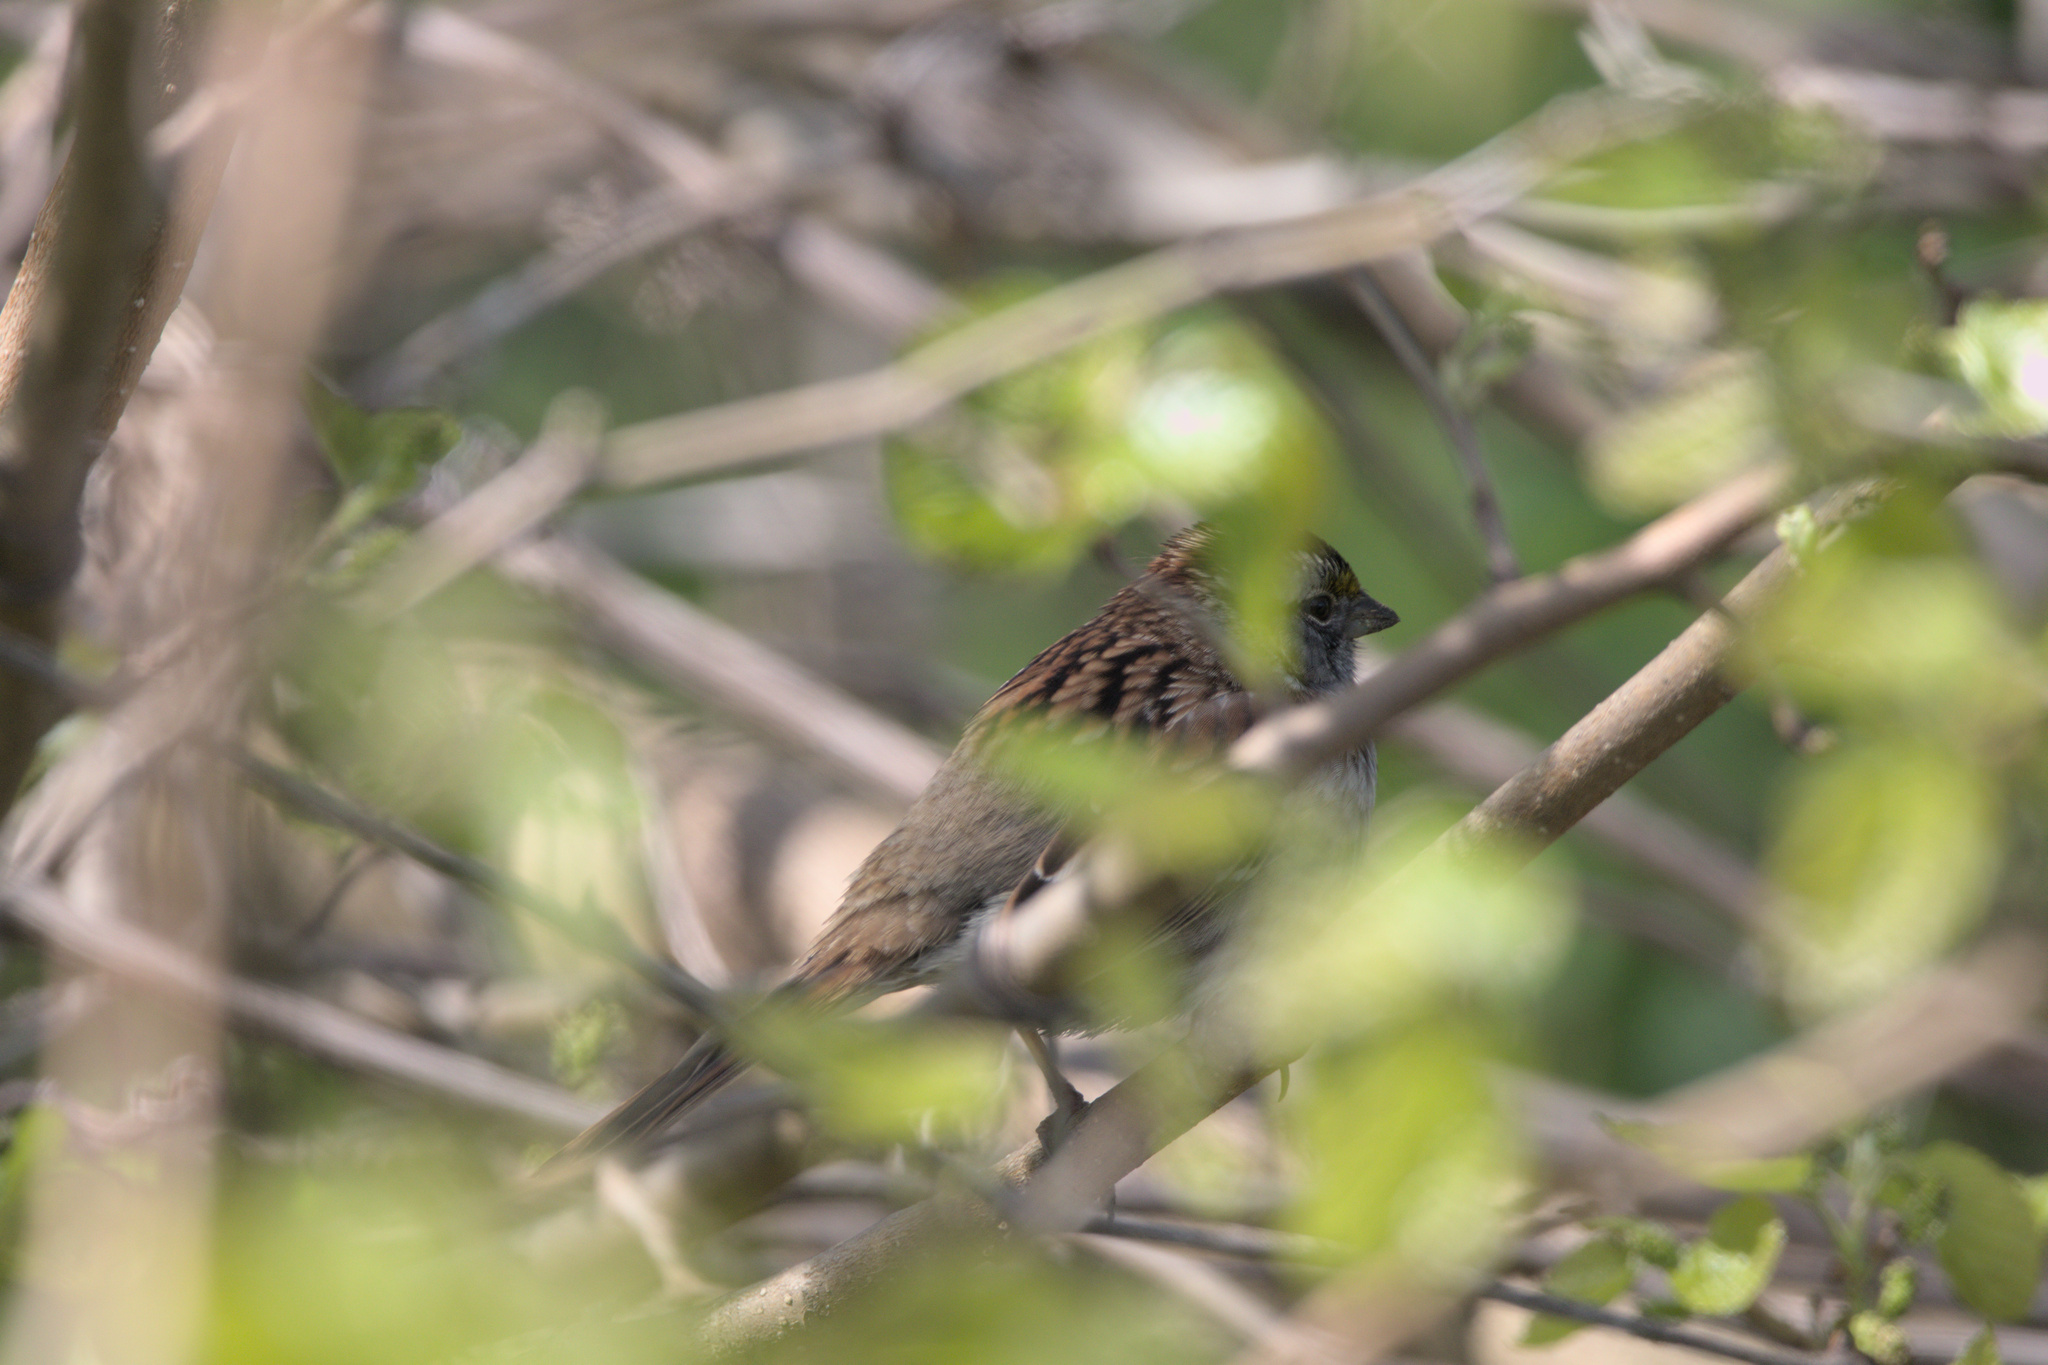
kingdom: Animalia
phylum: Chordata
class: Aves
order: Passeriformes
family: Passerellidae
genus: Zonotrichia
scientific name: Zonotrichia albicollis
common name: White-throated sparrow
